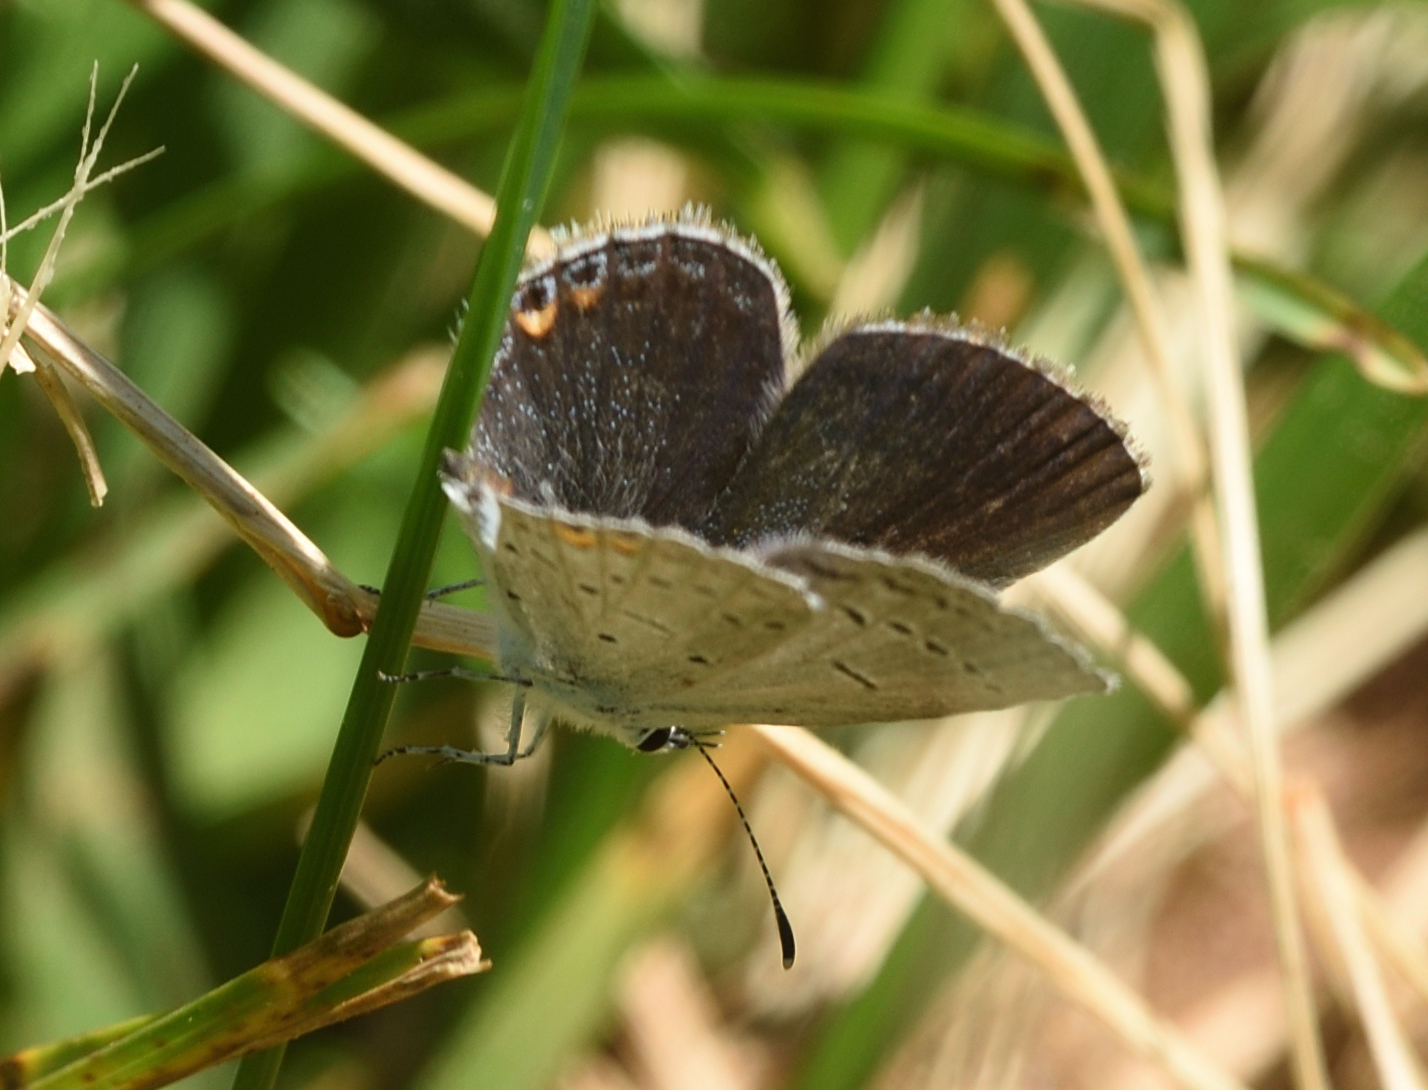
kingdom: Animalia
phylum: Arthropoda
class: Insecta
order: Lepidoptera
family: Lycaenidae
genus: Elkalyce
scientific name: Elkalyce comyntas
